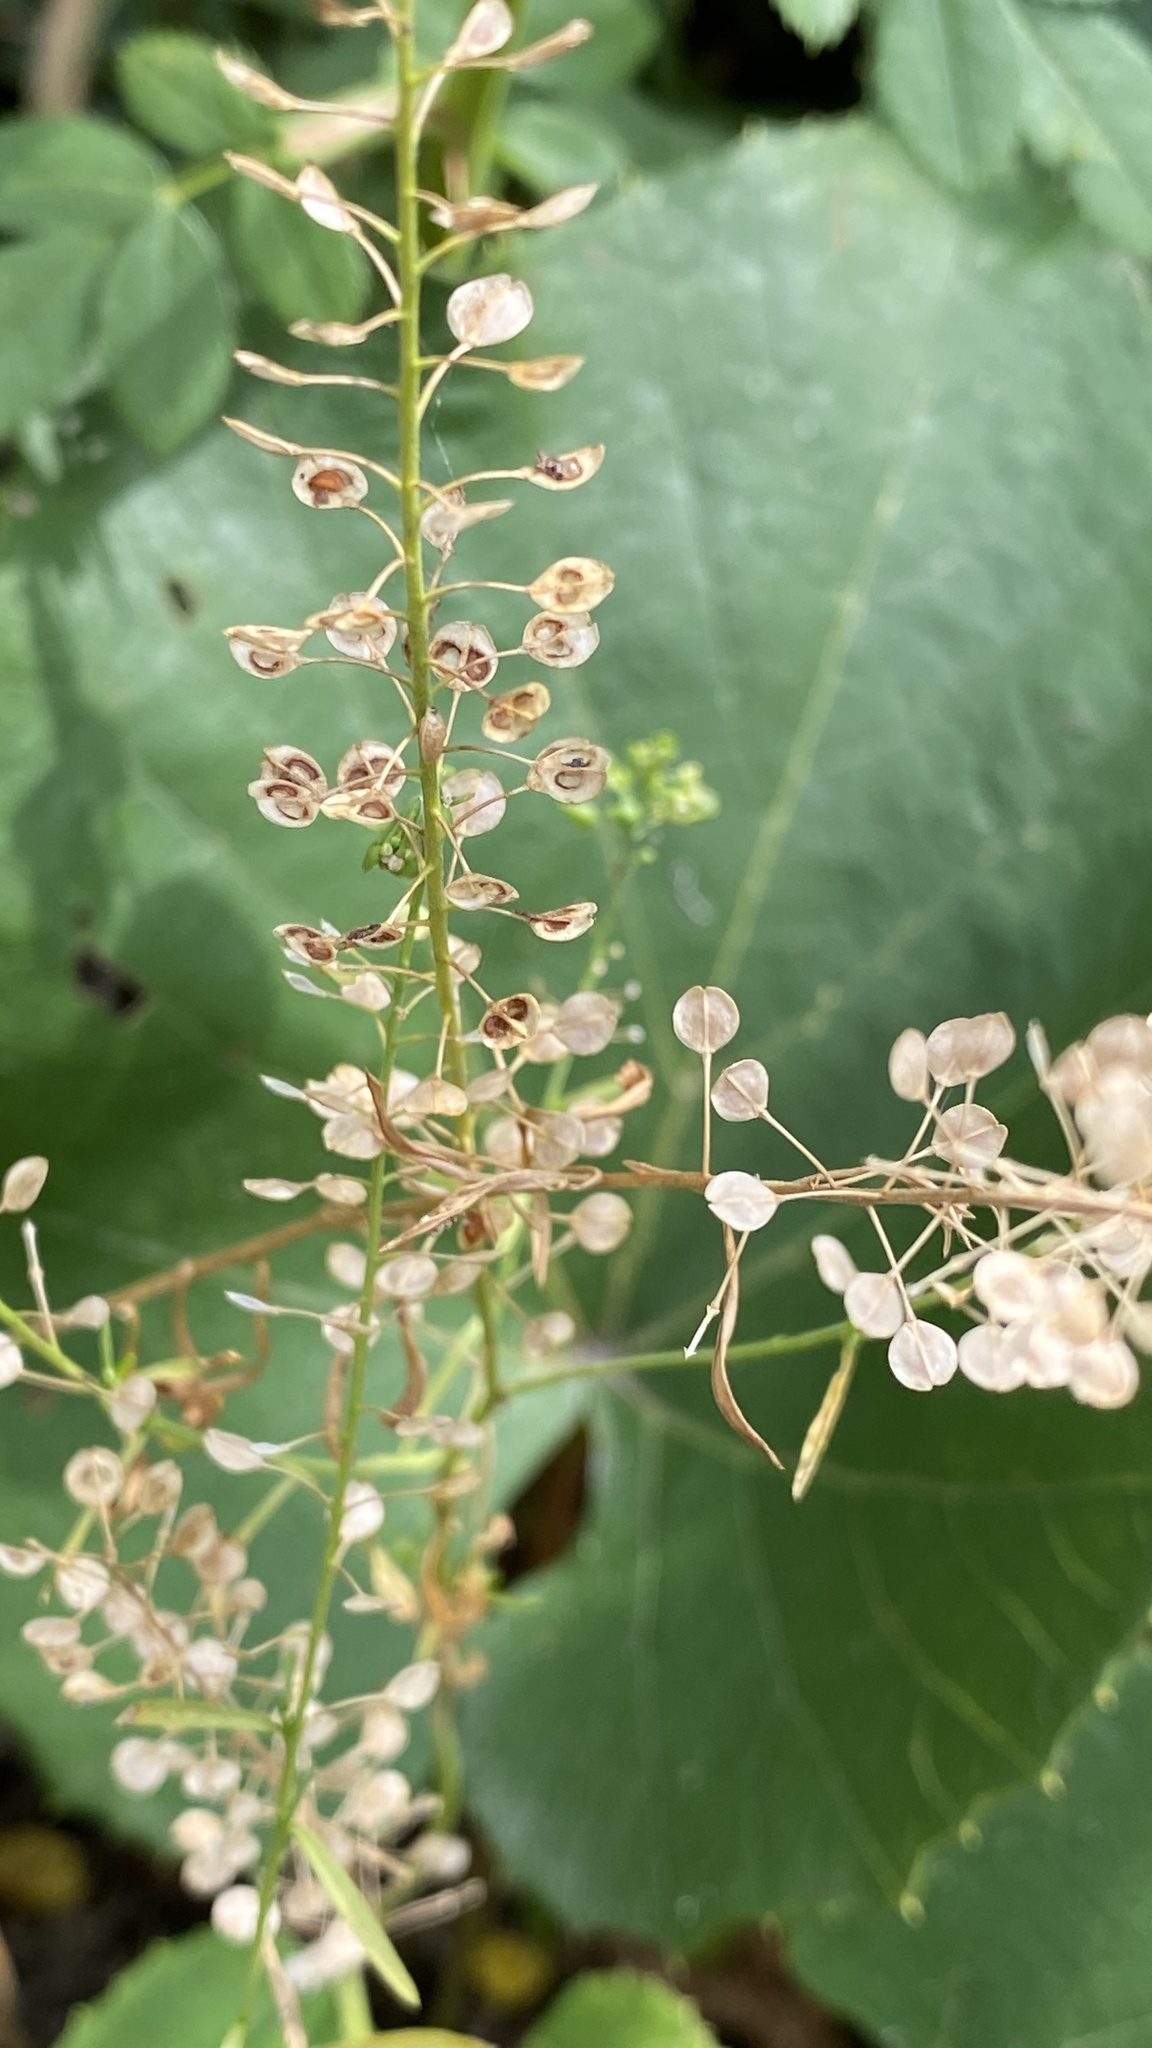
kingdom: Plantae
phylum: Tracheophyta
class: Magnoliopsida
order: Brassicales
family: Brassicaceae
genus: Lepidium
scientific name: Lepidium virginicum
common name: Least pepperwort
